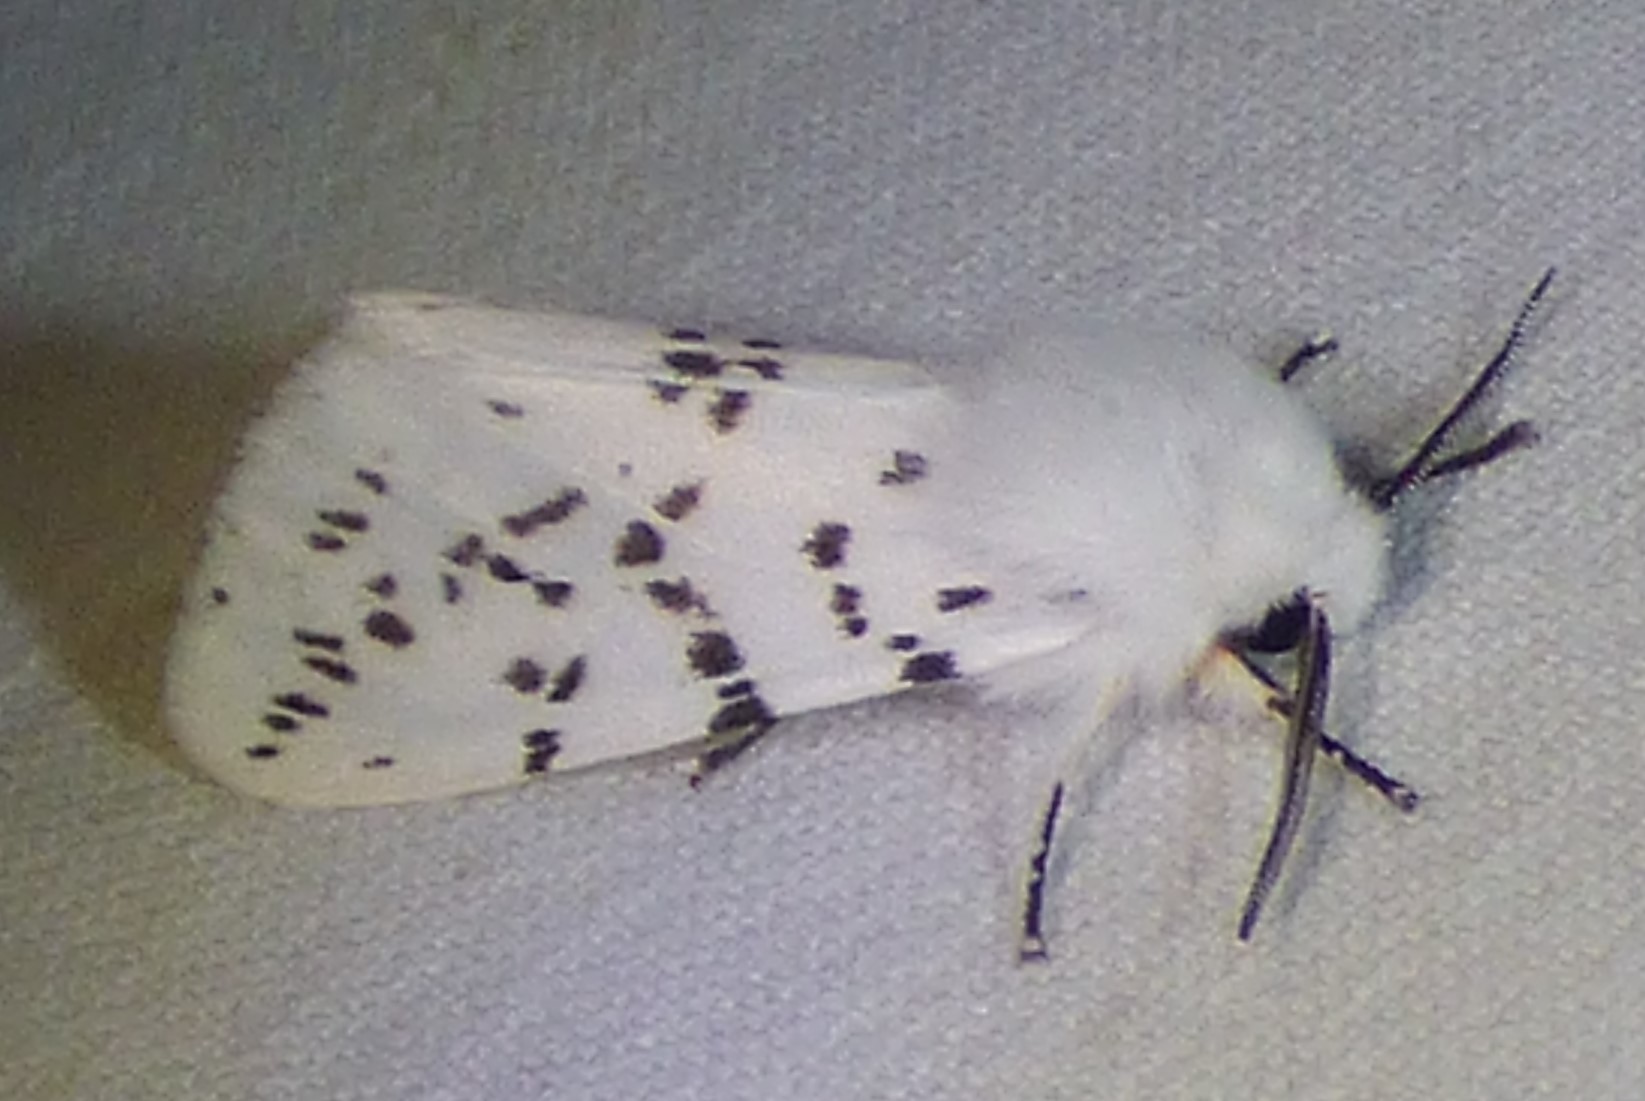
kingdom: Animalia
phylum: Arthropoda
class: Insecta
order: Lepidoptera
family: Erebidae
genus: Hyphantria
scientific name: Hyphantria cunea
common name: American white moth
